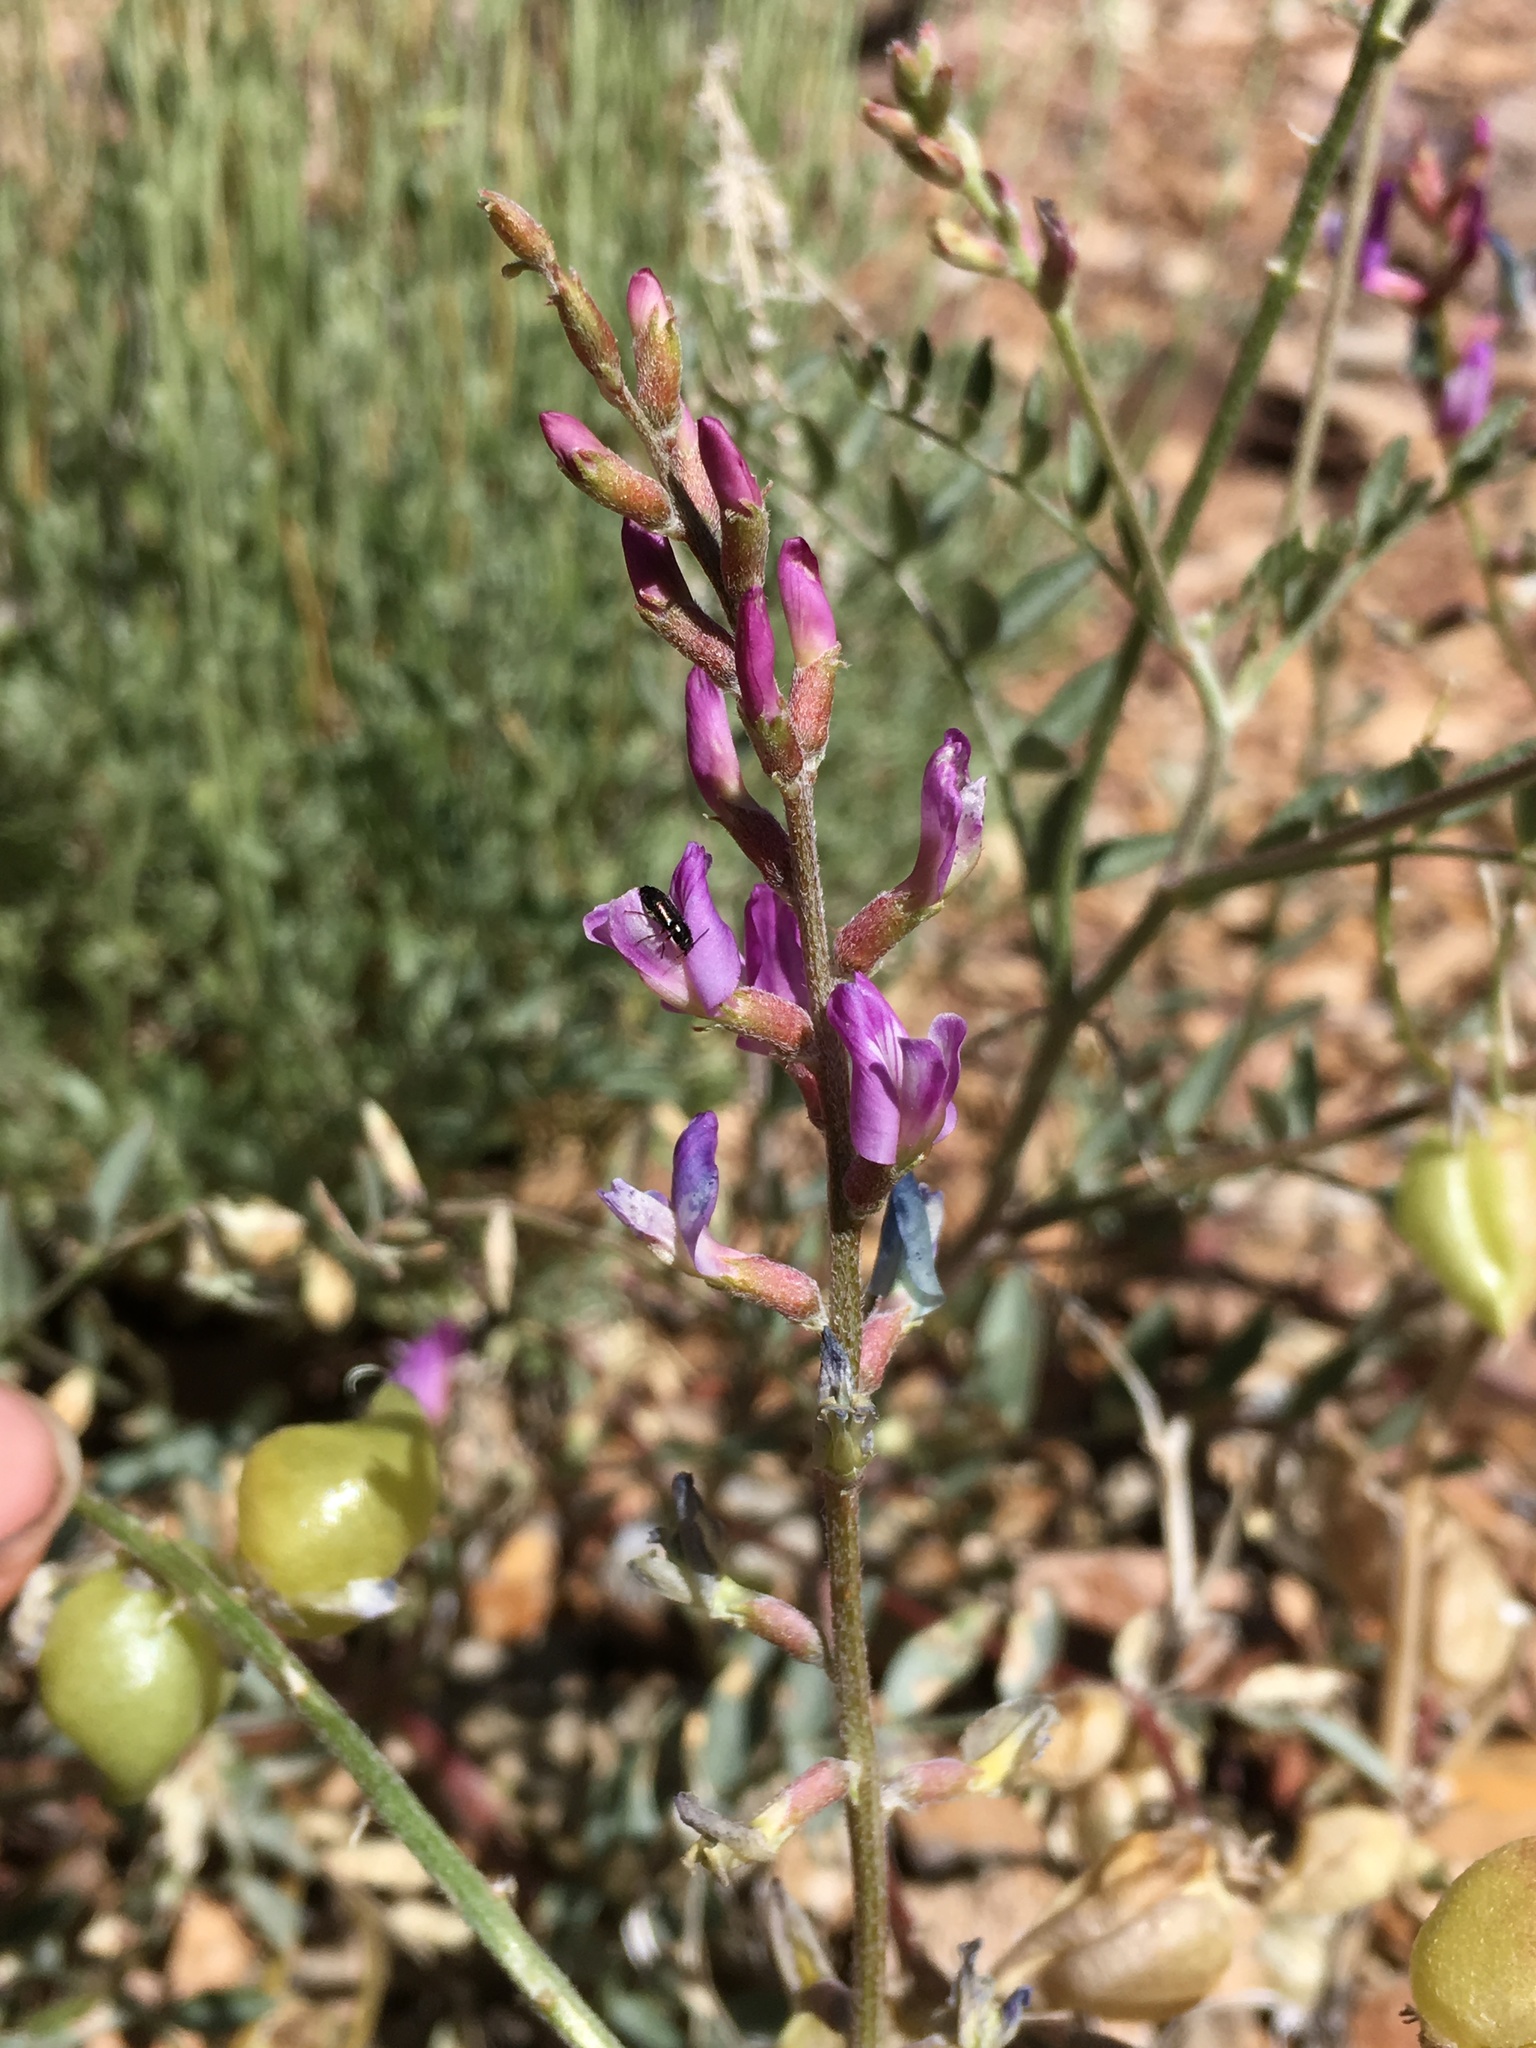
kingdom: Plantae
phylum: Tracheophyta
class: Magnoliopsida
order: Fabales
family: Fabaceae
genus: Astragalus
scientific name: Astragalus lentiginosus
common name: Freckled milkvetch
